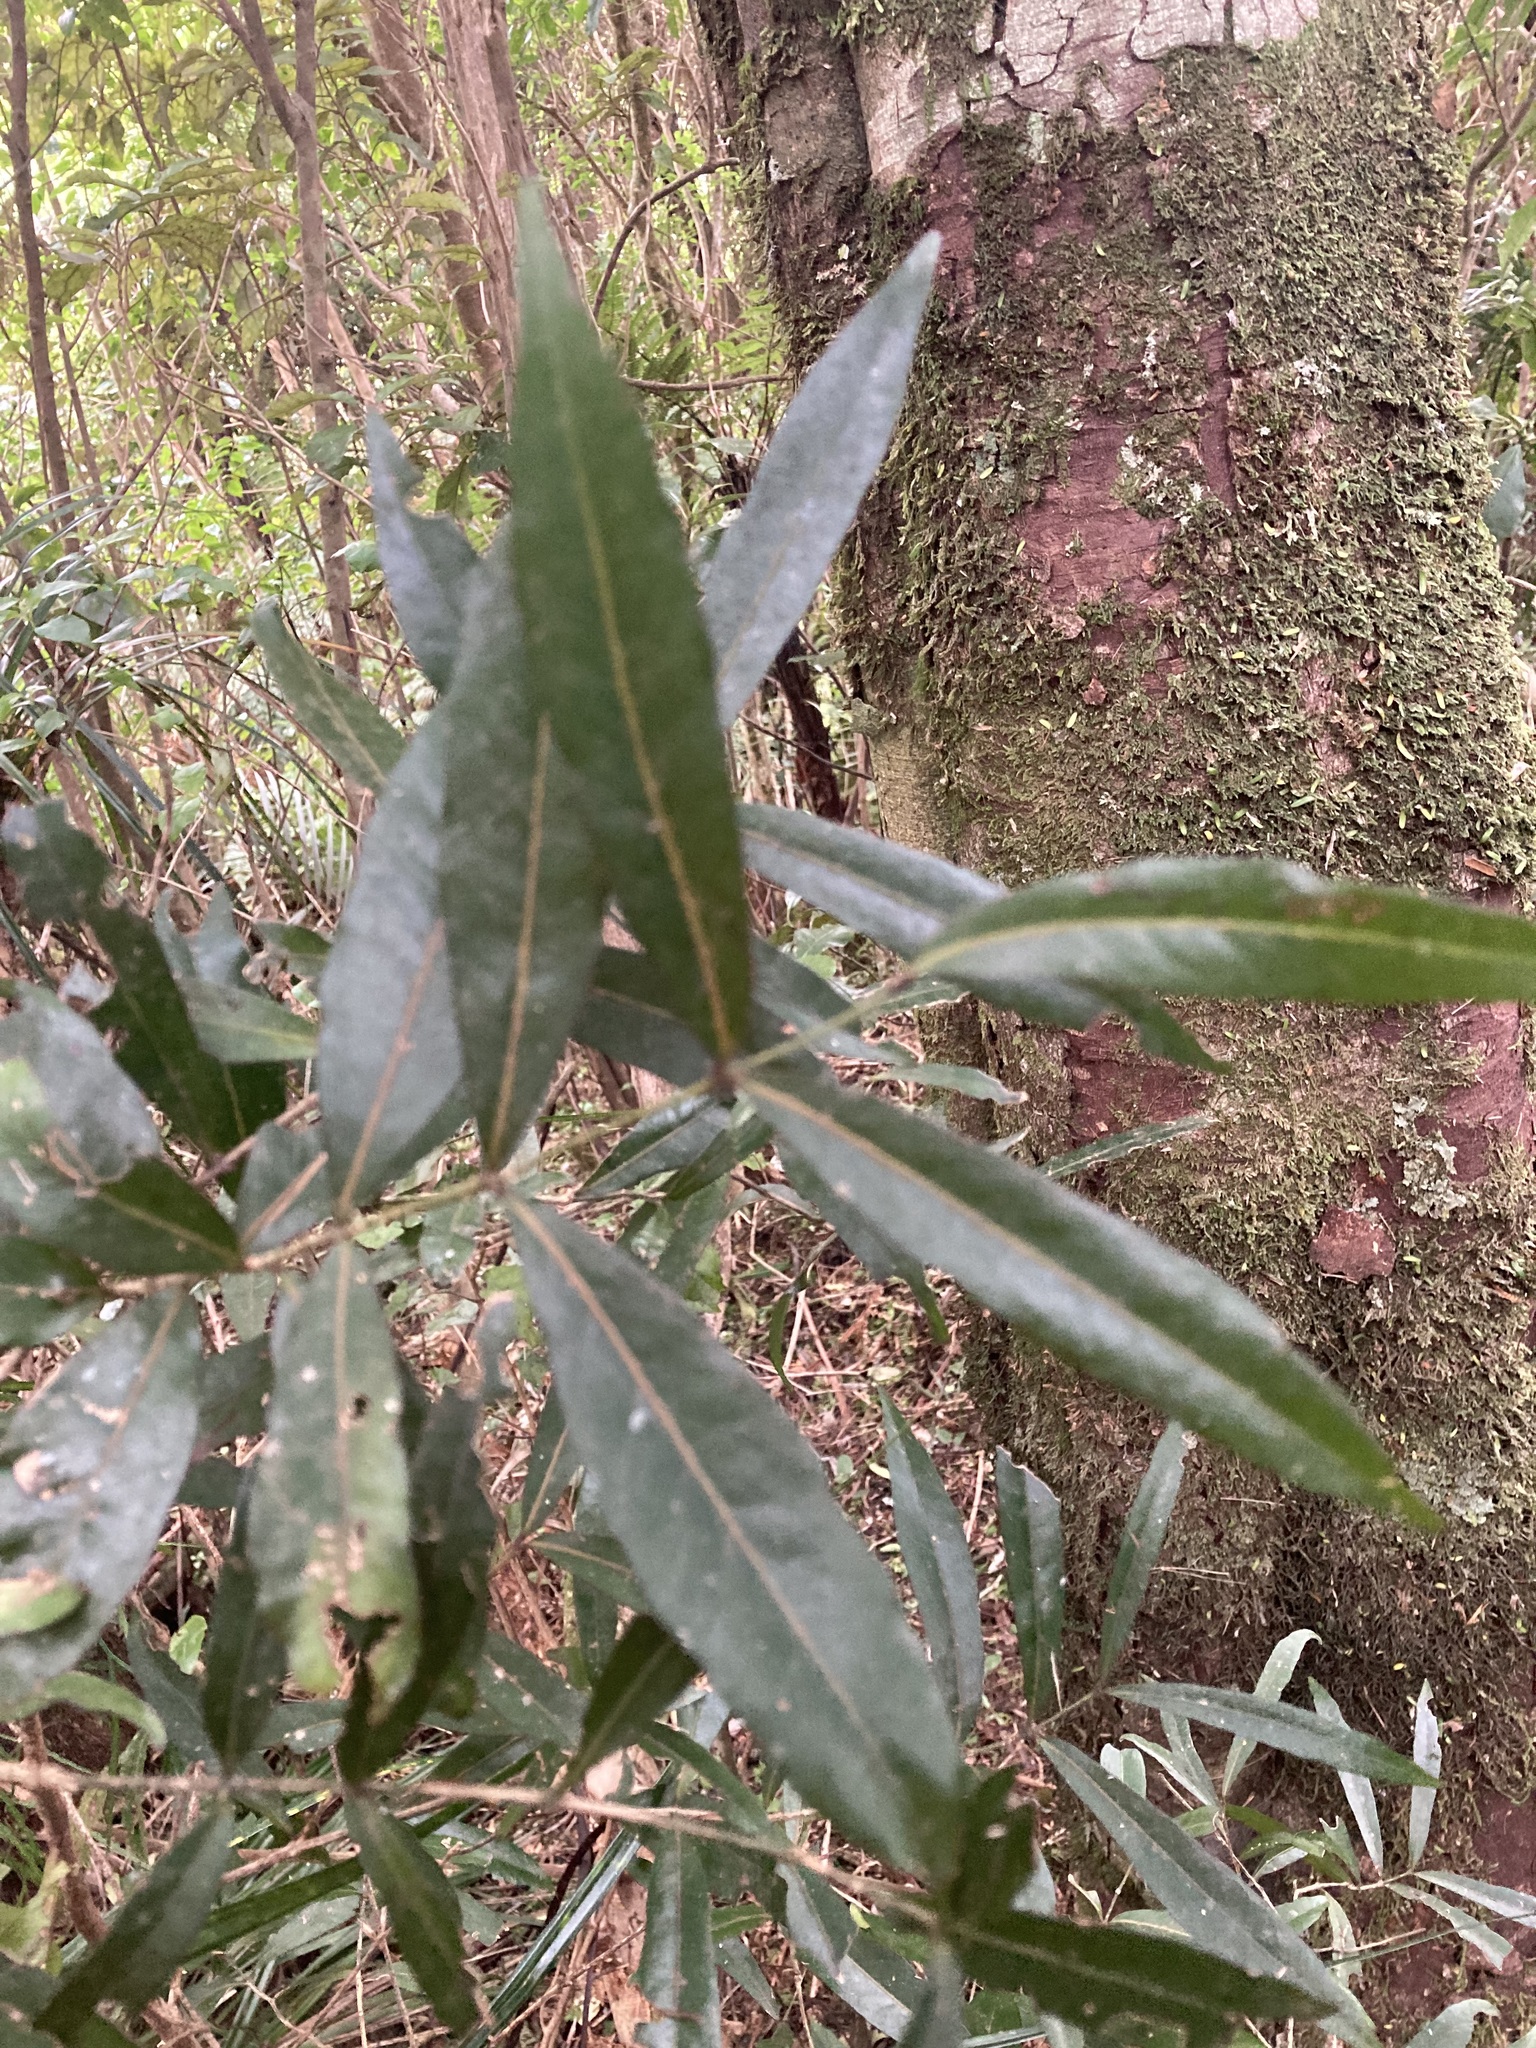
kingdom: Plantae
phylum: Tracheophyta
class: Magnoliopsida
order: Santalales
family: Nanodeaceae
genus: Mida
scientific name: Mida salicifolia
